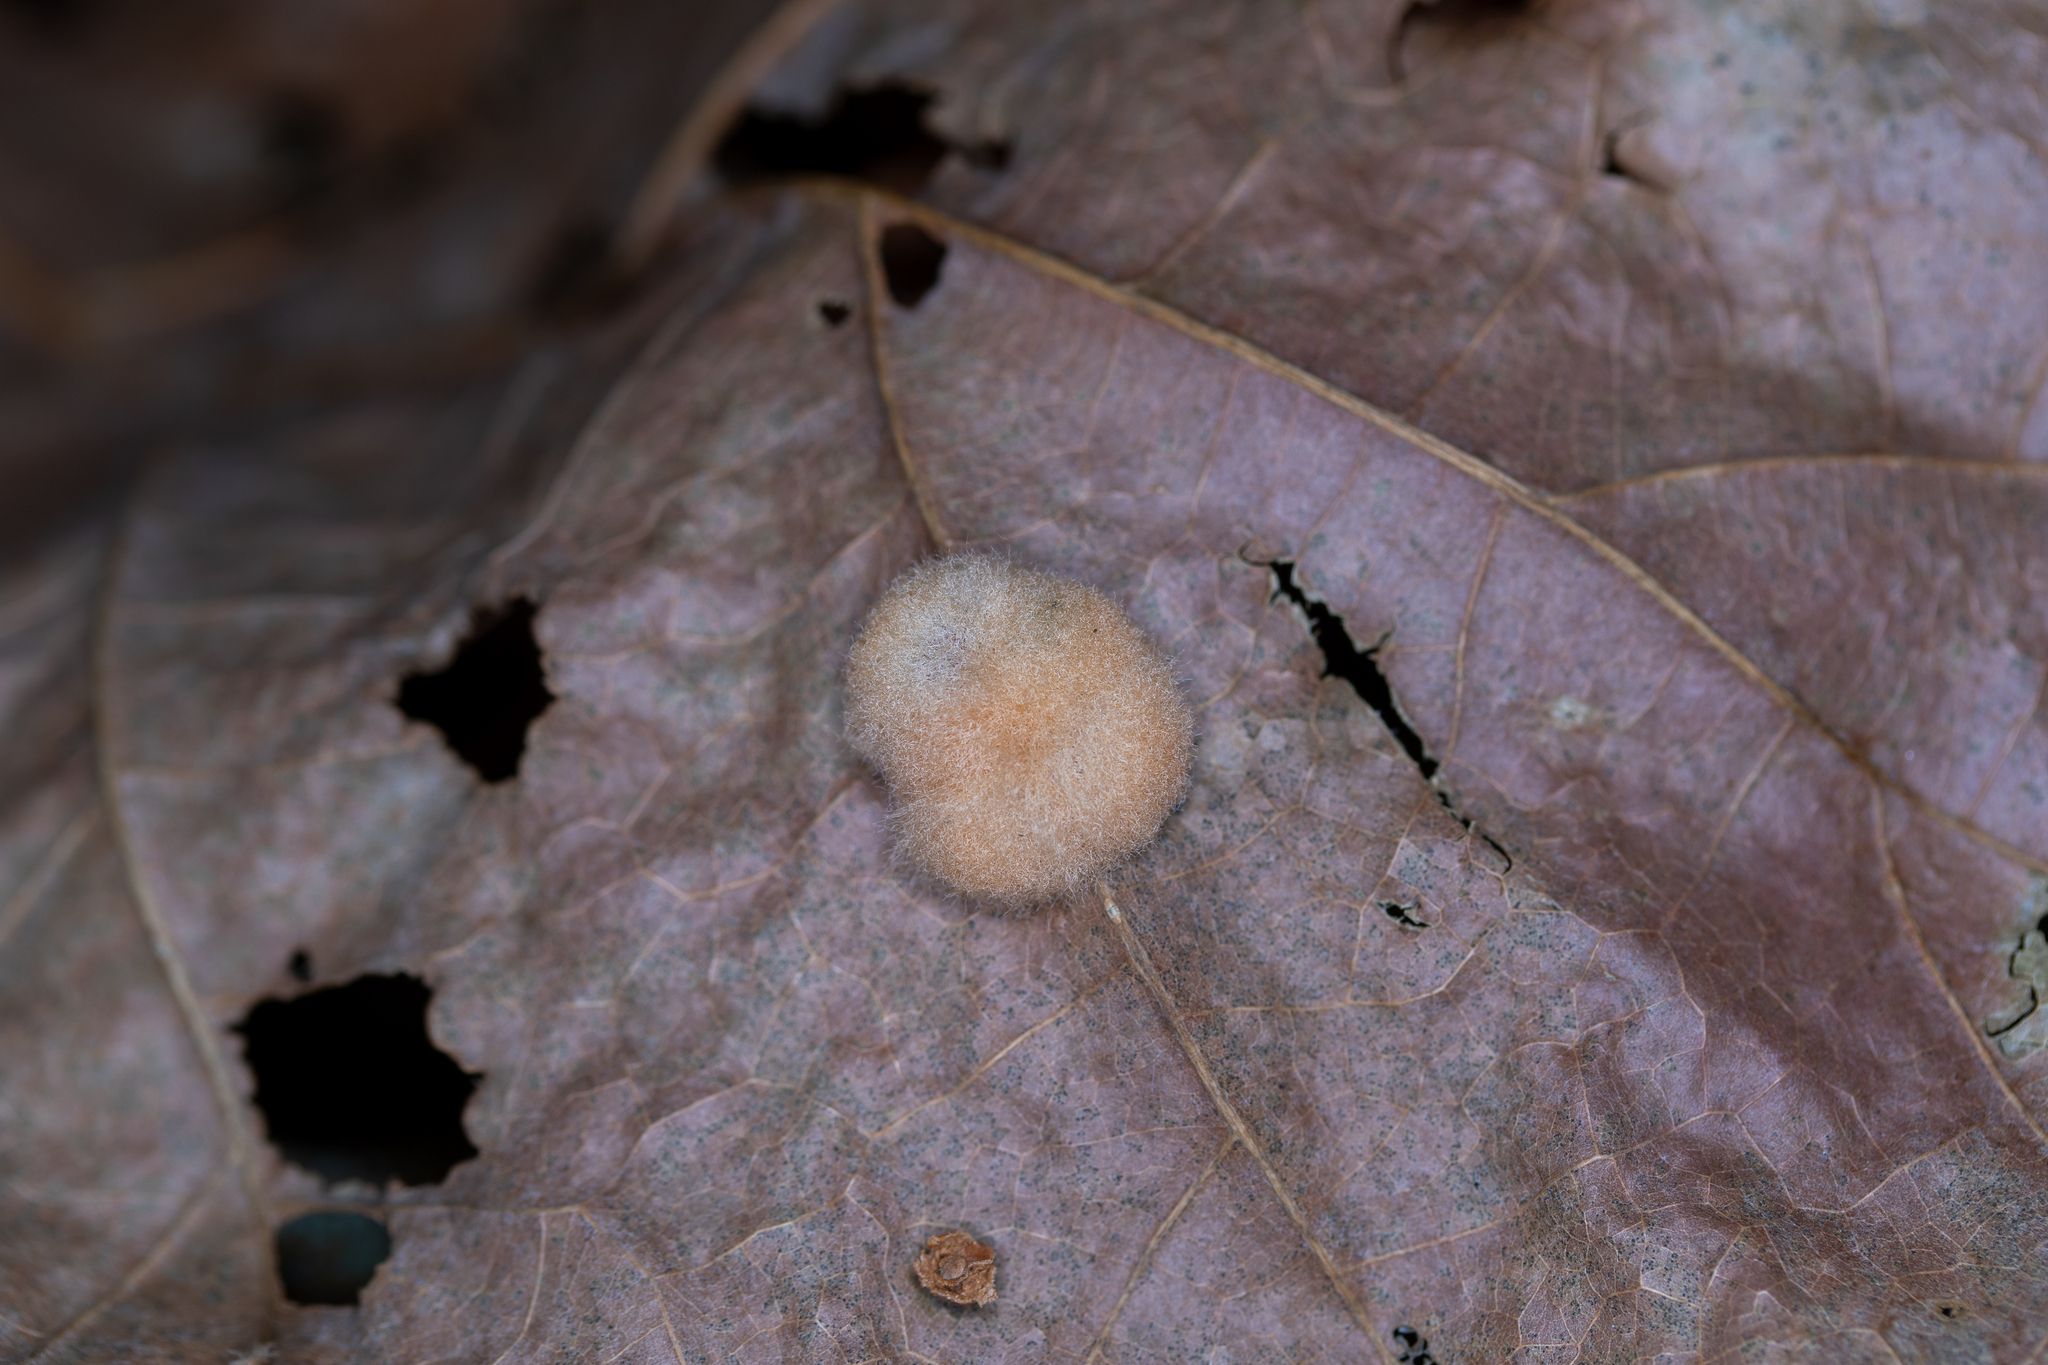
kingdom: Animalia
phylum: Arthropoda
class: Insecta
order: Hymenoptera
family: Cynipidae
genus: Callirhytis
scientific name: Callirhytis
